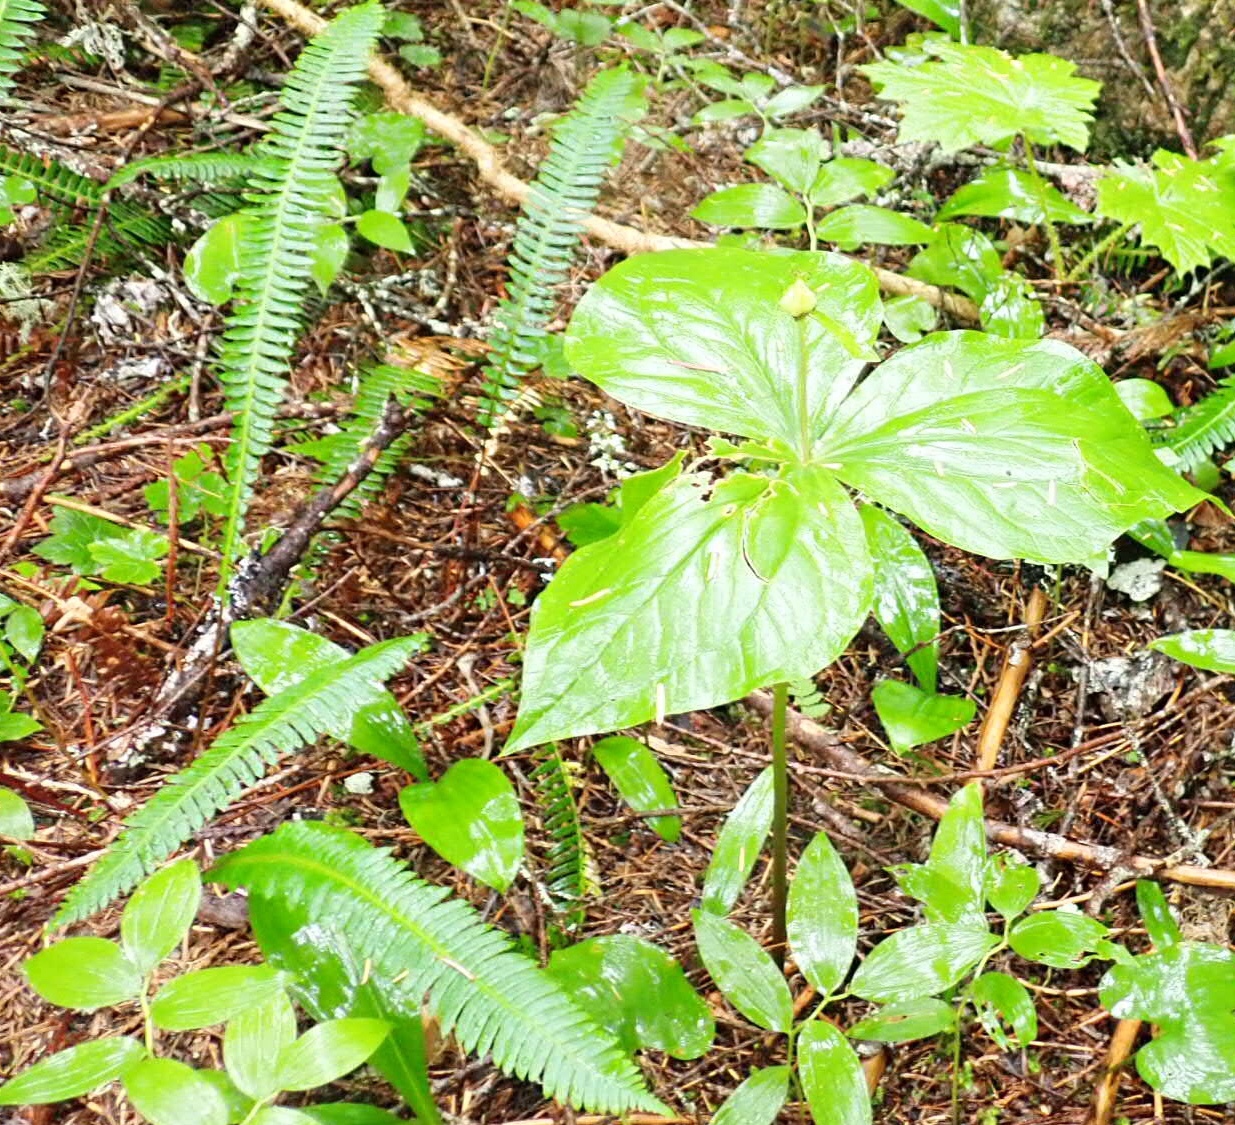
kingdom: Plantae
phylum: Tracheophyta
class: Liliopsida
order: Liliales
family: Melanthiaceae
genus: Trillium
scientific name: Trillium ovatum
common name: Pacific trillium
